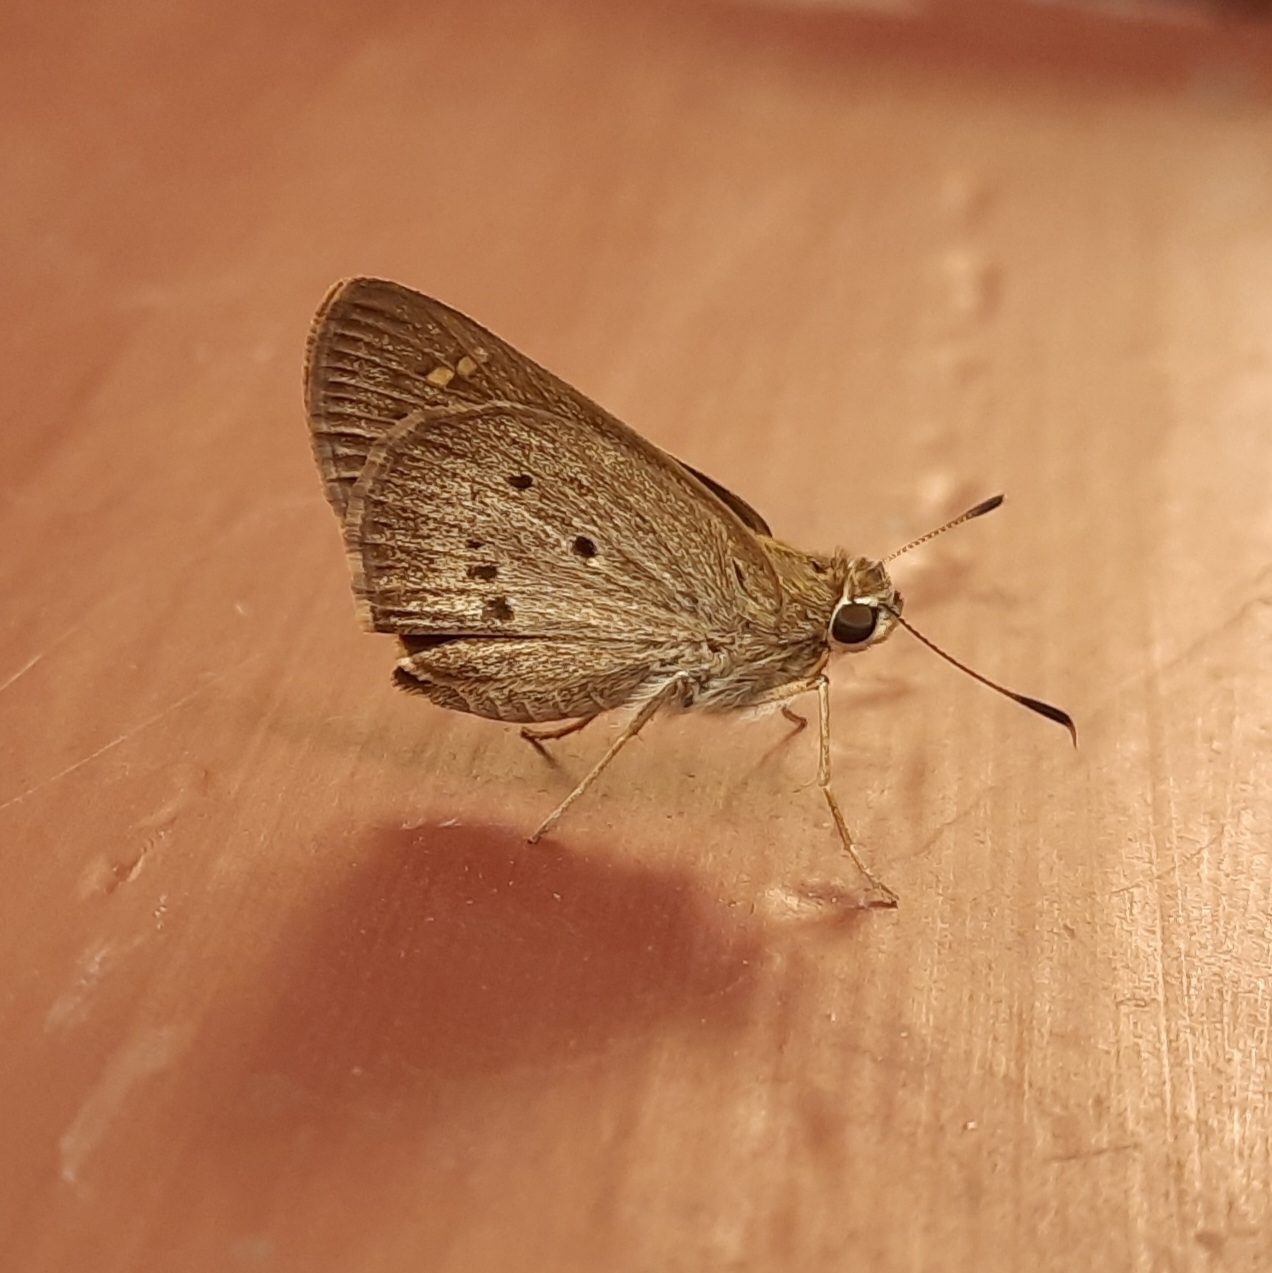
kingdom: Animalia
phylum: Arthropoda
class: Insecta
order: Lepidoptera
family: Hesperiidae
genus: Suastus
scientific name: Suastus gremius
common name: Indian palm bob
